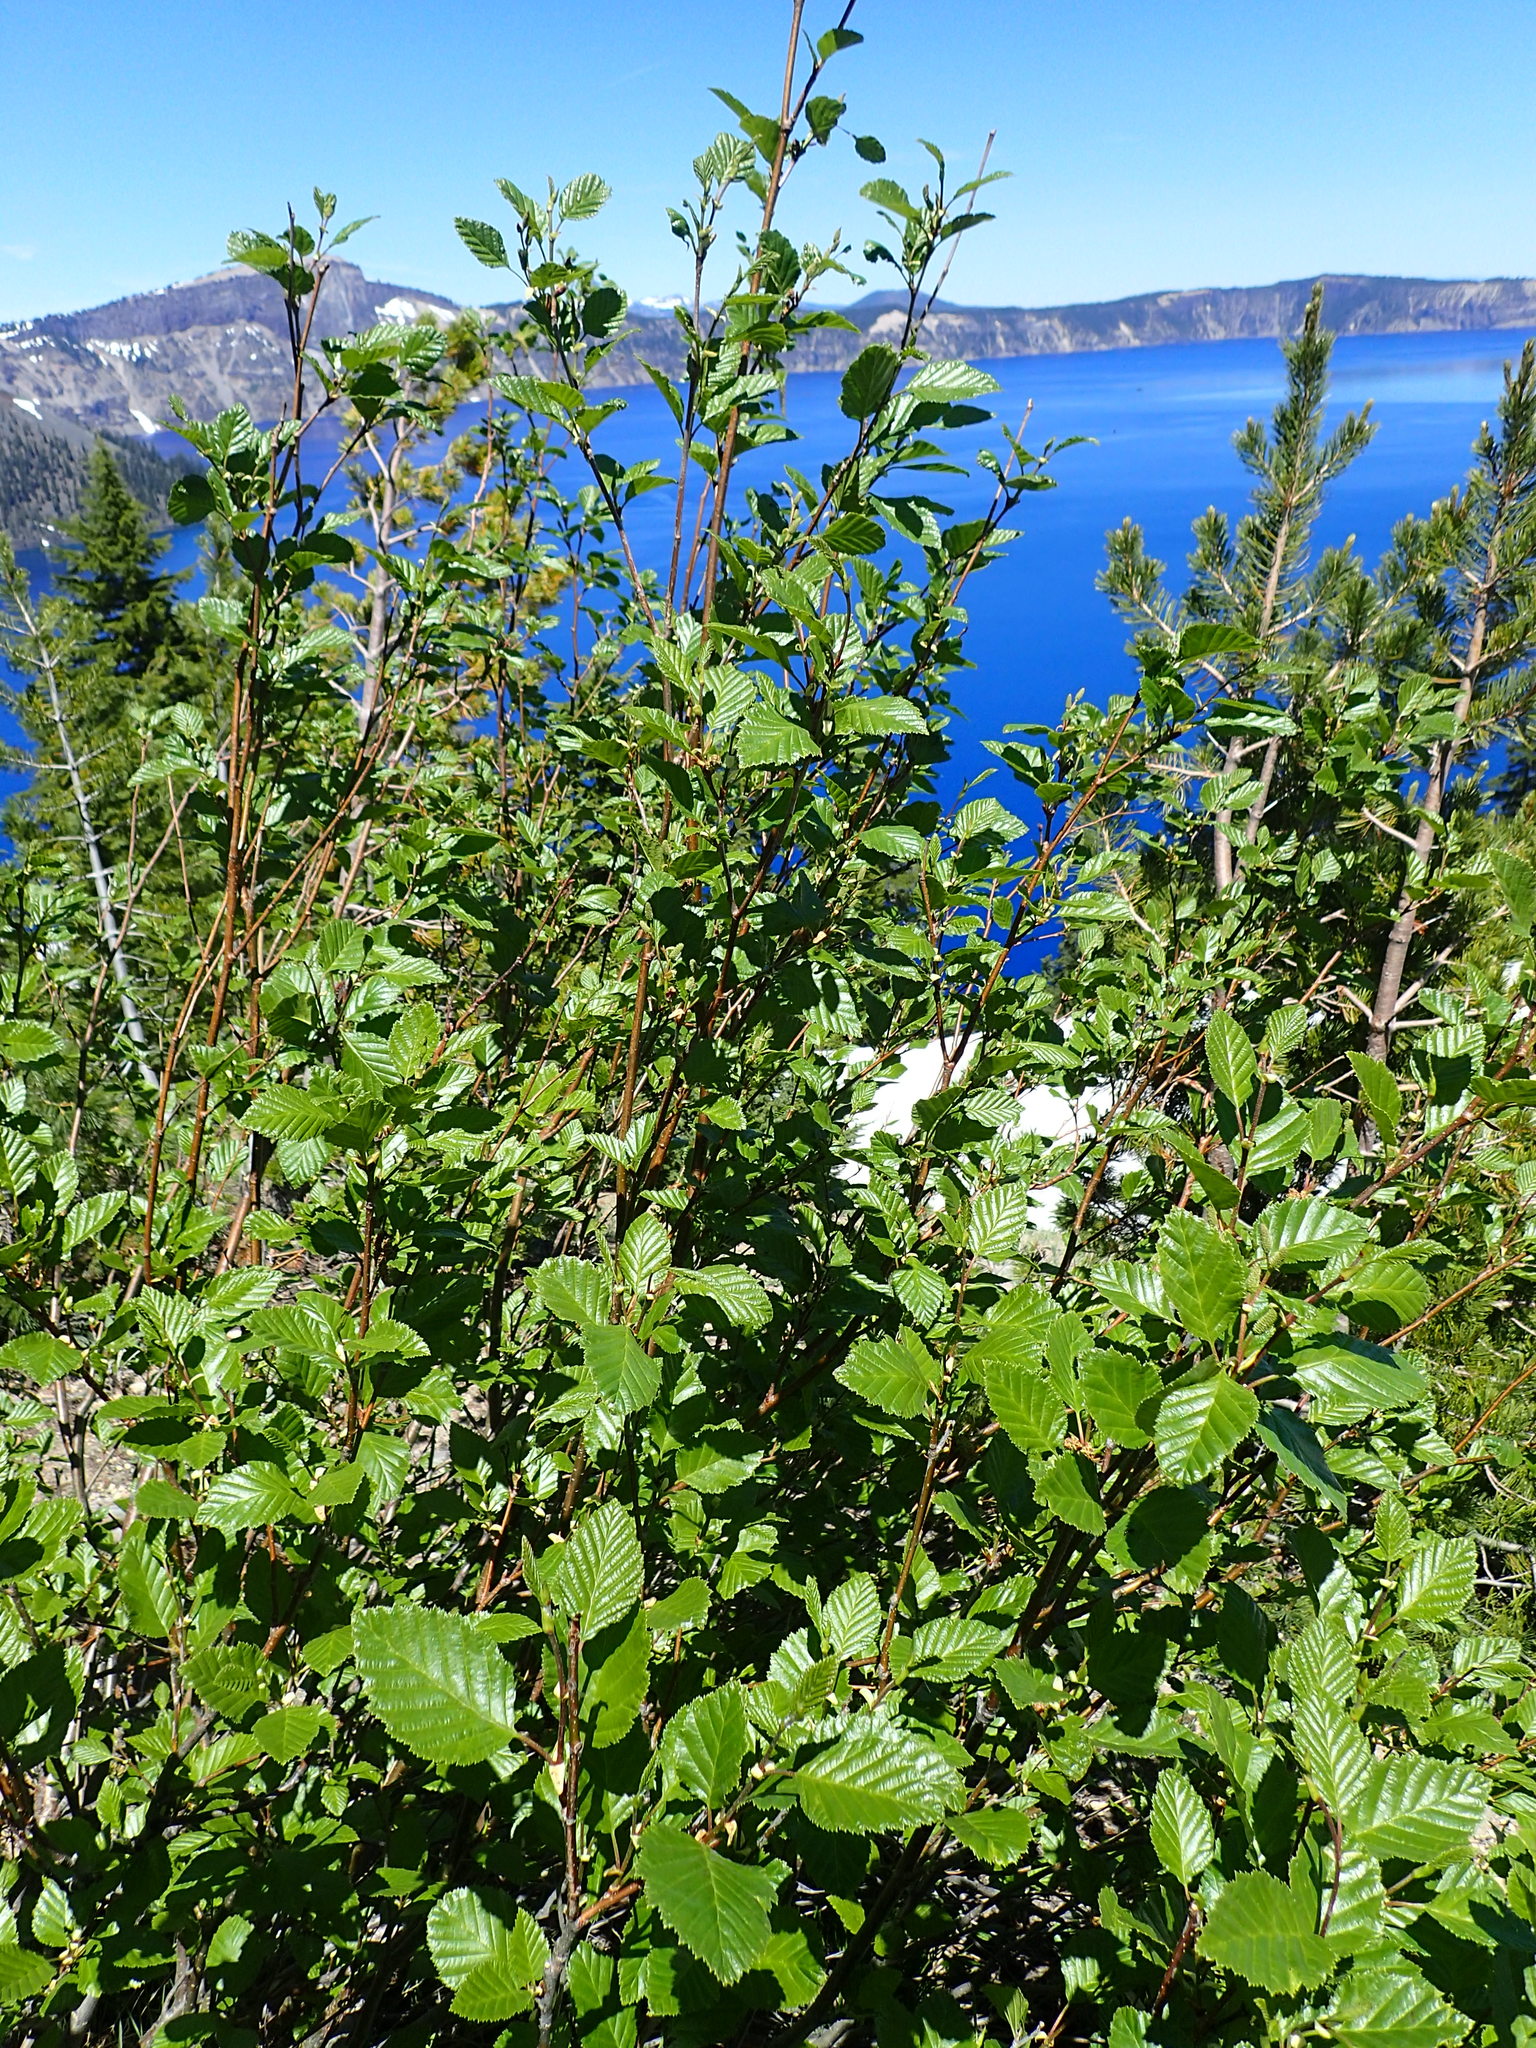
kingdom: Plantae
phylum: Tracheophyta
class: Magnoliopsida
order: Fagales
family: Betulaceae
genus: Alnus
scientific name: Alnus alnobetula
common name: Green alder
